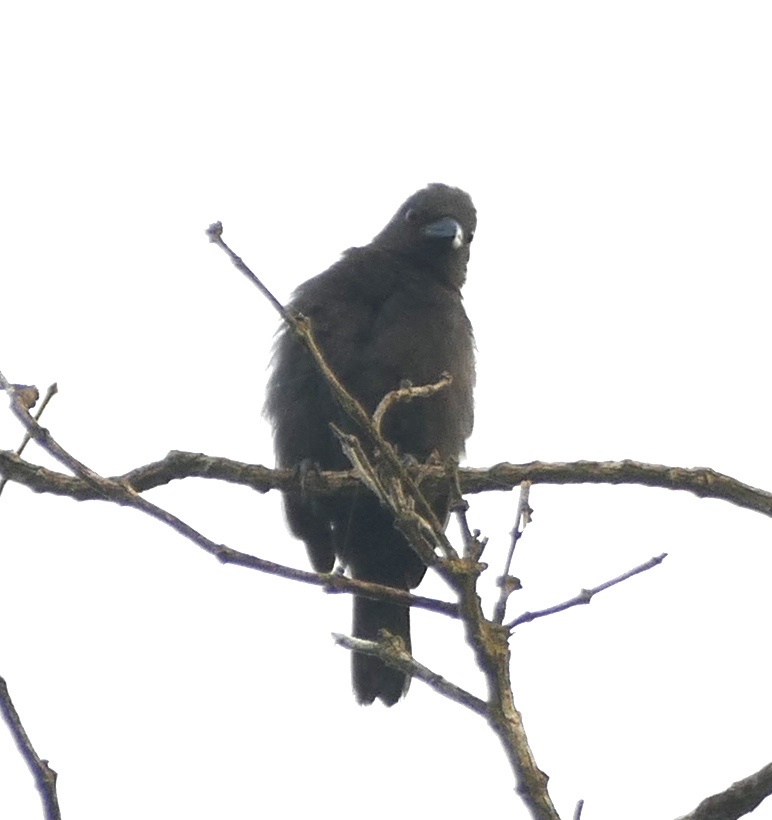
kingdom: Animalia
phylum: Chordata
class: Aves
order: Passeriformes
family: Estrildidae
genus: Nigrita
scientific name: Nigrita canicapillus
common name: Grey-headed nigrita
